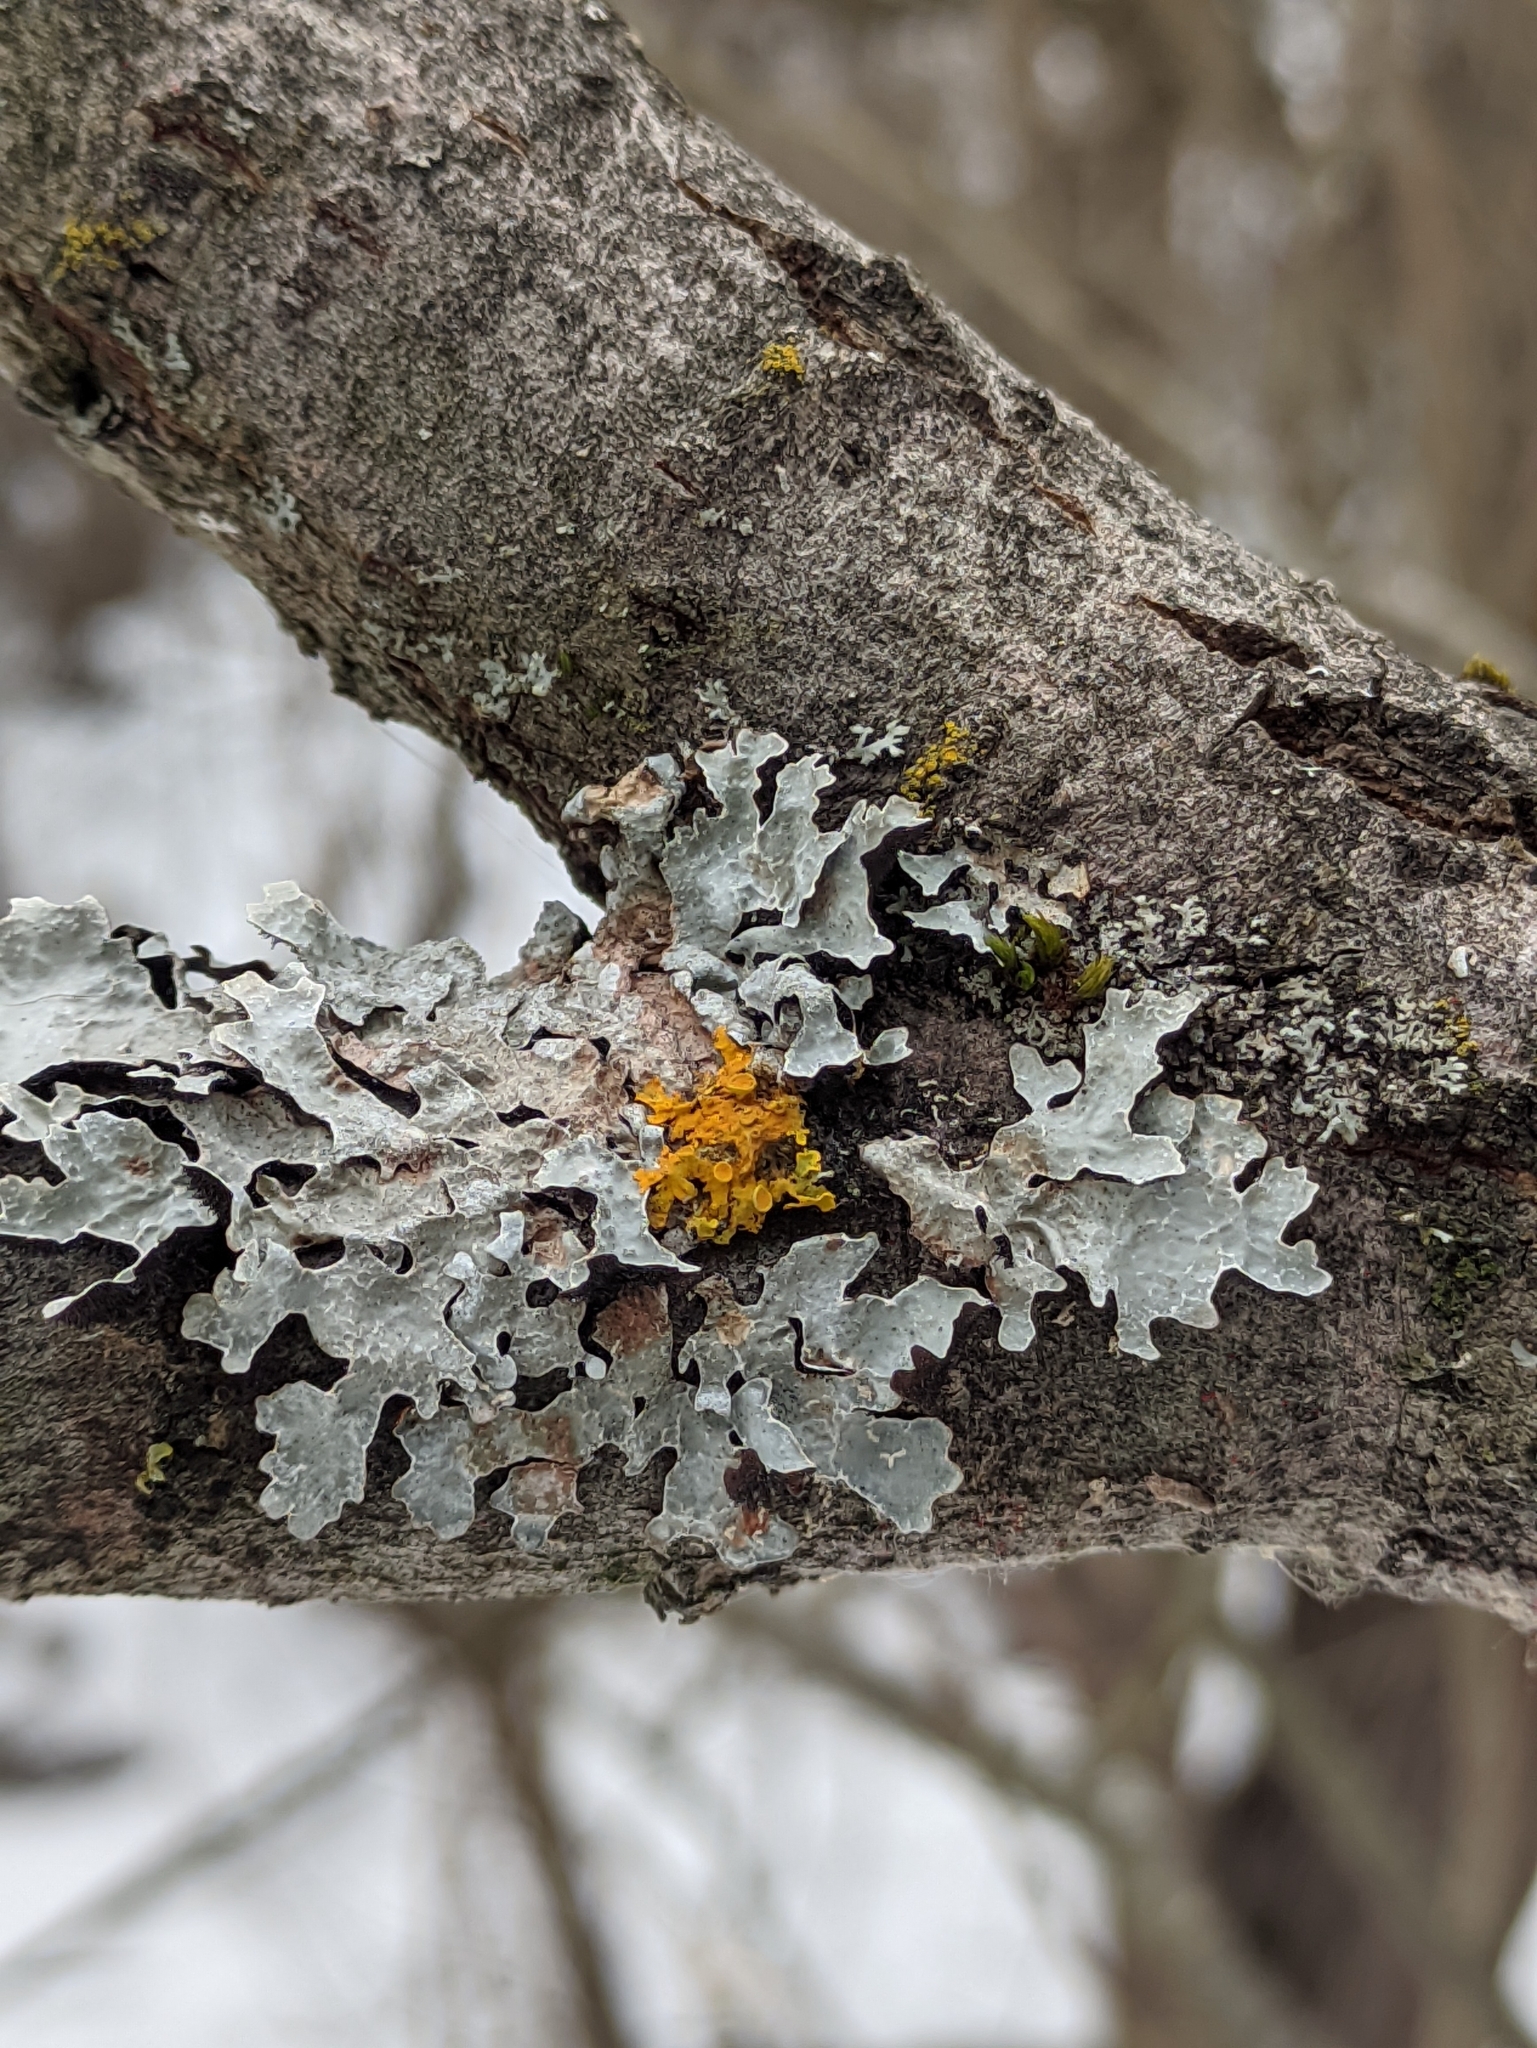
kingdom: Fungi
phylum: Ascomycota
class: Lecanoromycetes
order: Lecanorales
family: Parmeliaceae
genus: Parmelia
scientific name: Parmelia sulcata
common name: Netted shield lichen
